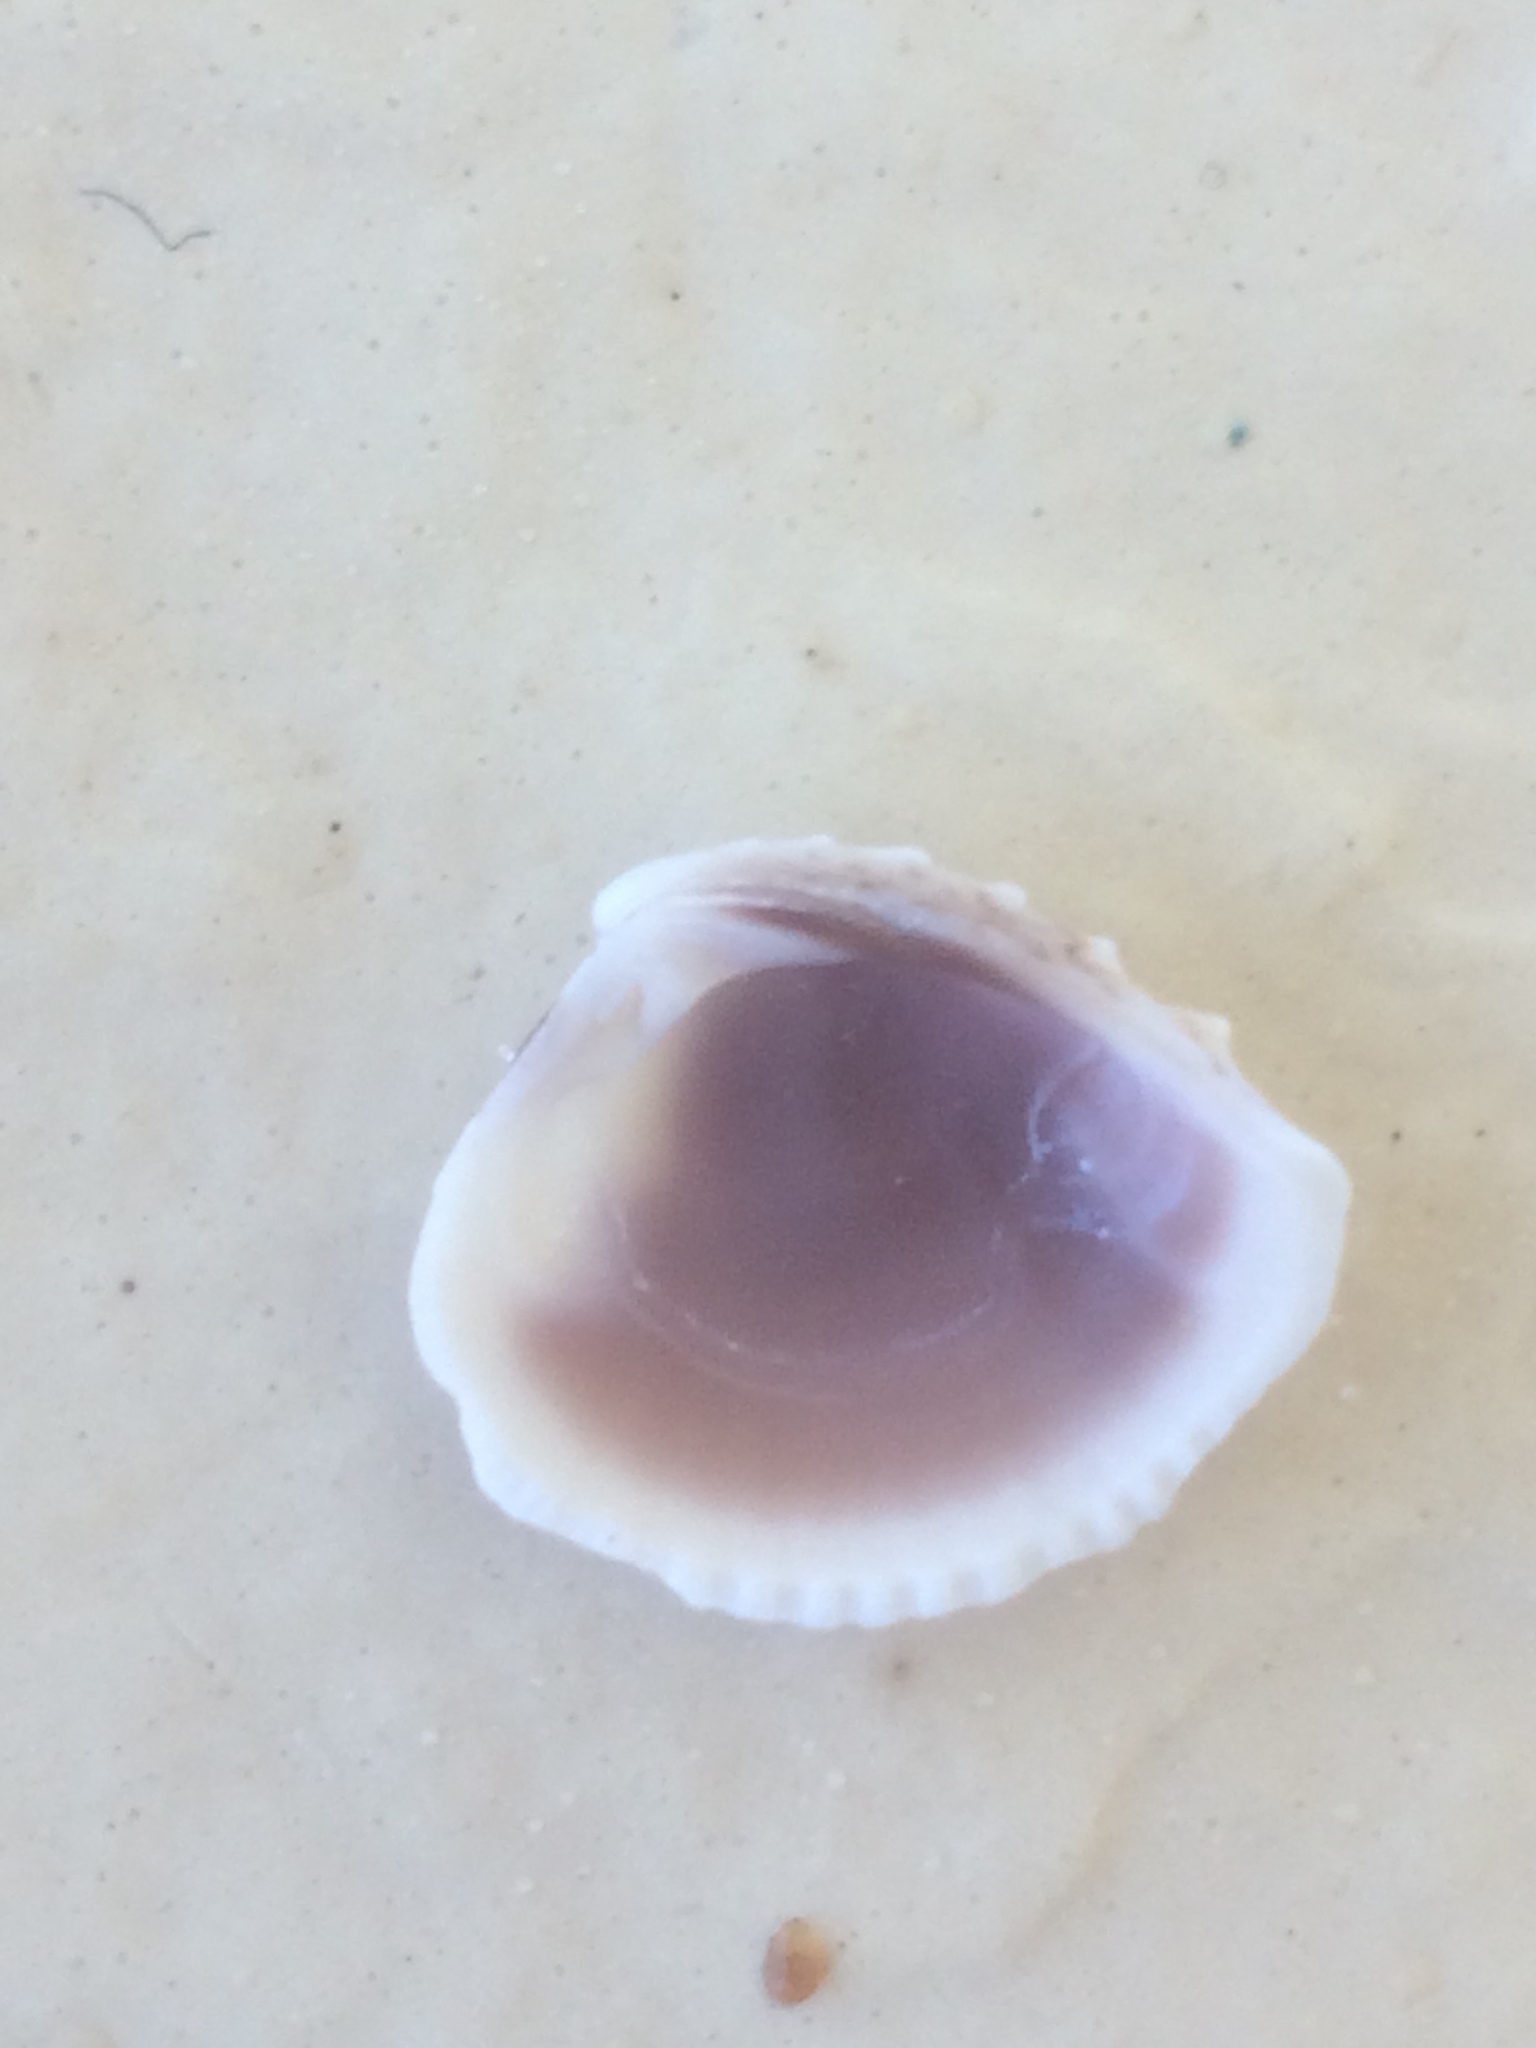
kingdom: Animalia
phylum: Mollusca
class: Bivalvia
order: Venerida
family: Veneridae
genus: Chione
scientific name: Chione elevata
